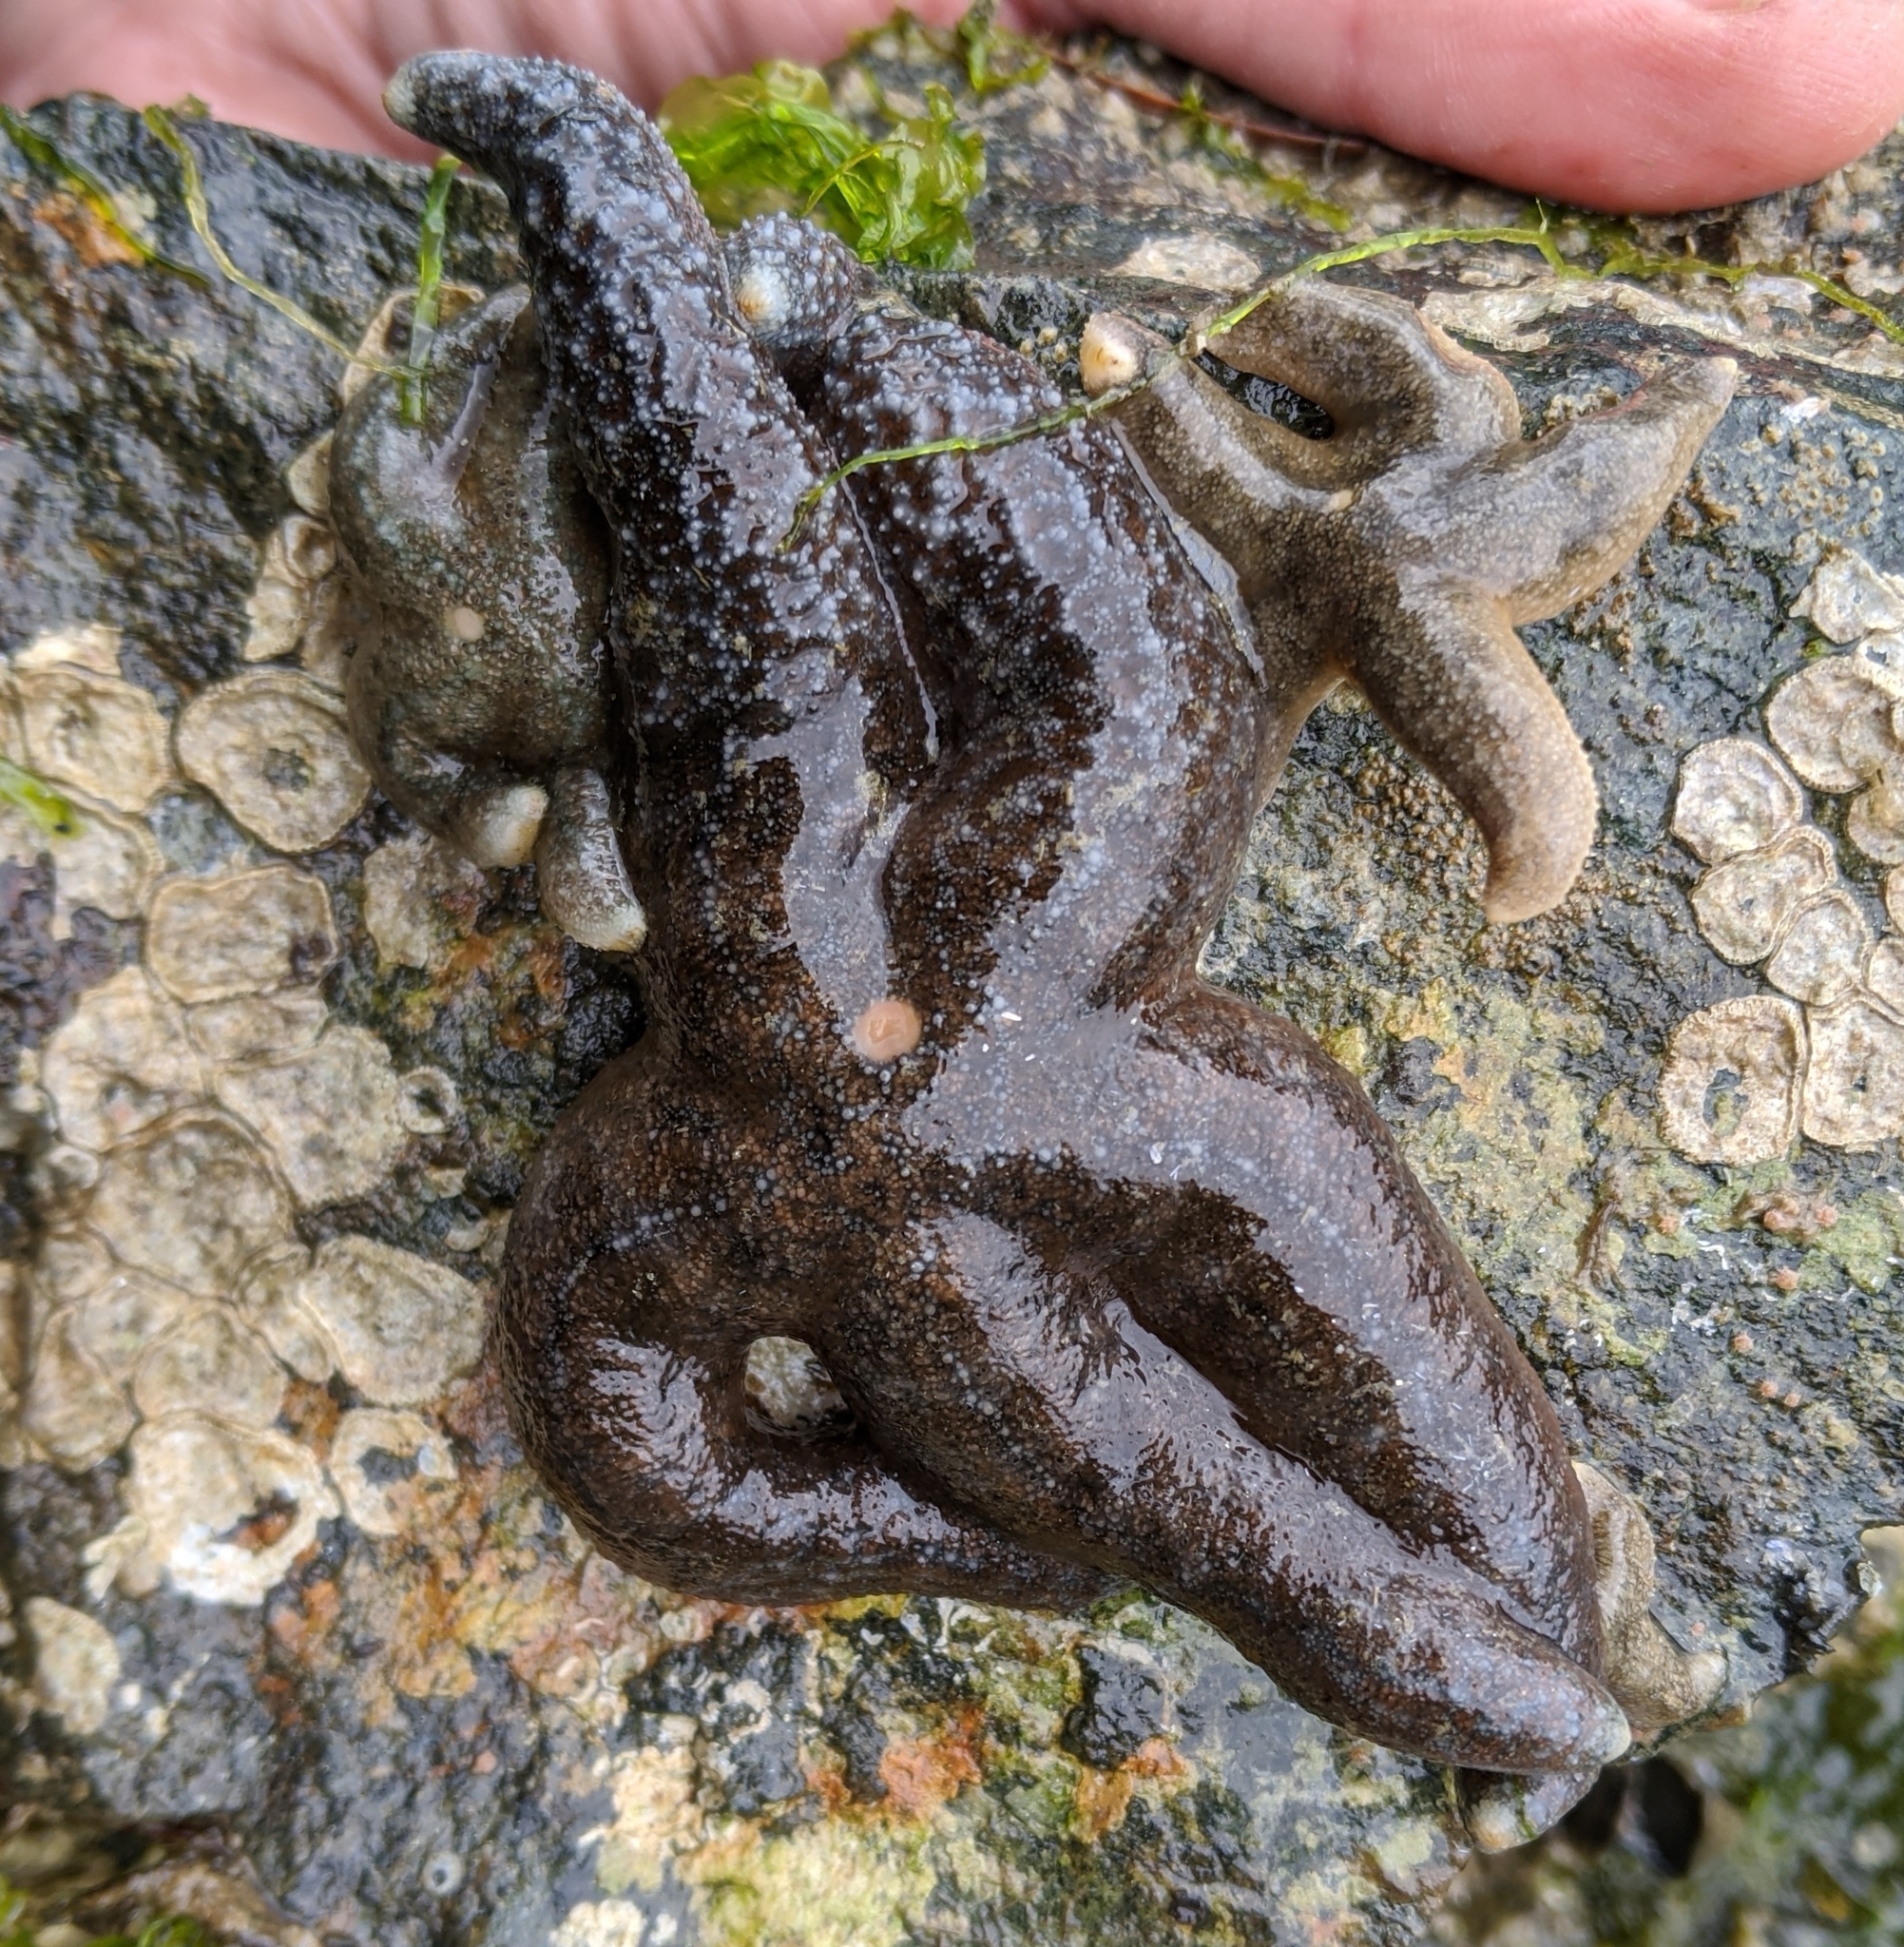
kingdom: Animalia
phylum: Echinodermata
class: Asteroidea
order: Forcipulatida
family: Asteriidae
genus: Evasterias
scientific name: Evasterias troschelii
